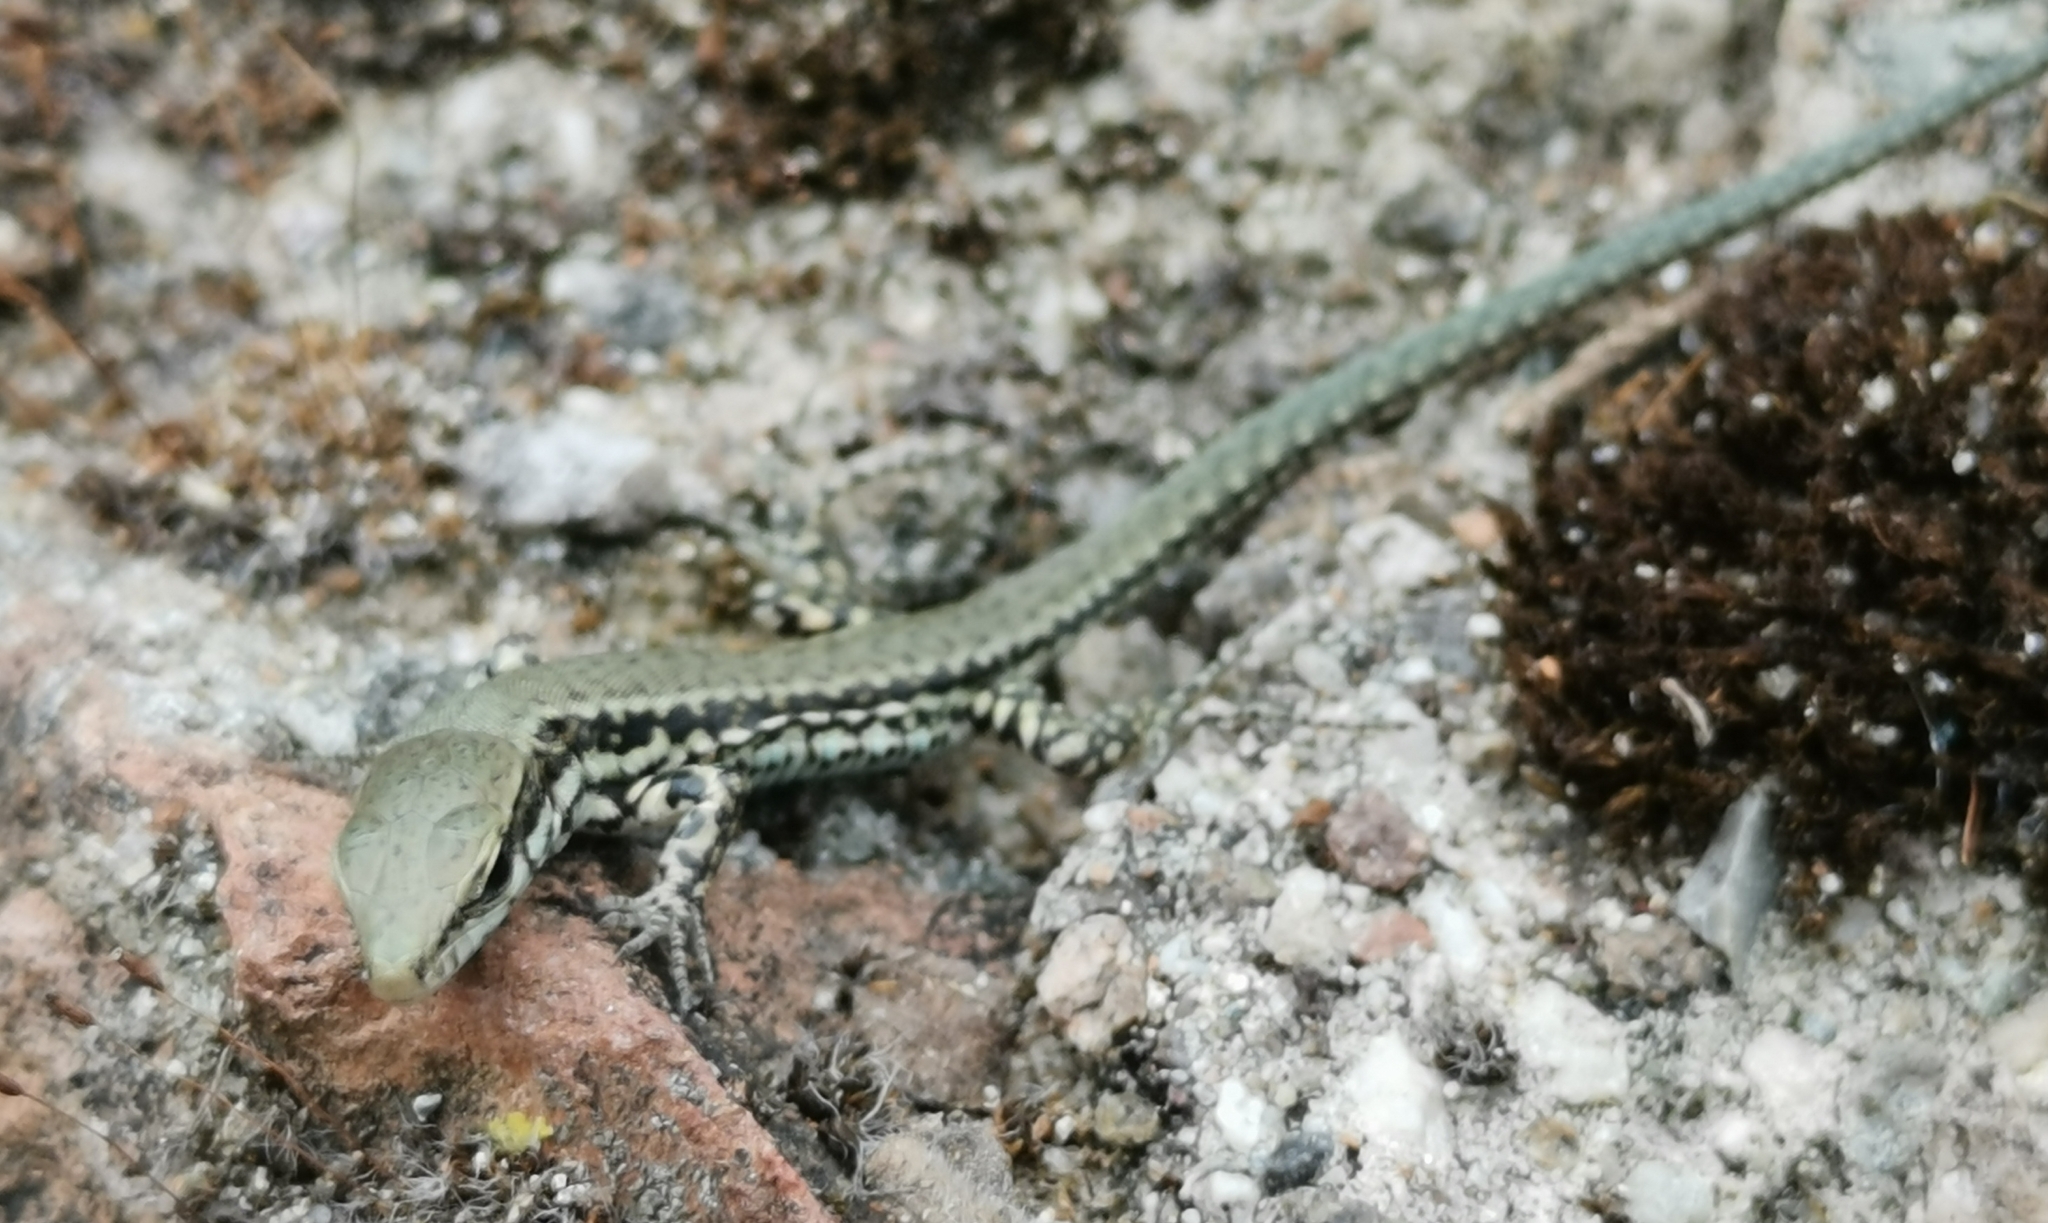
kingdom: Animalia
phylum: Chordata
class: Squamata
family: Lacertidae
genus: Podarcis
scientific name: Podarcis muralis
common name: Common wall lizard
